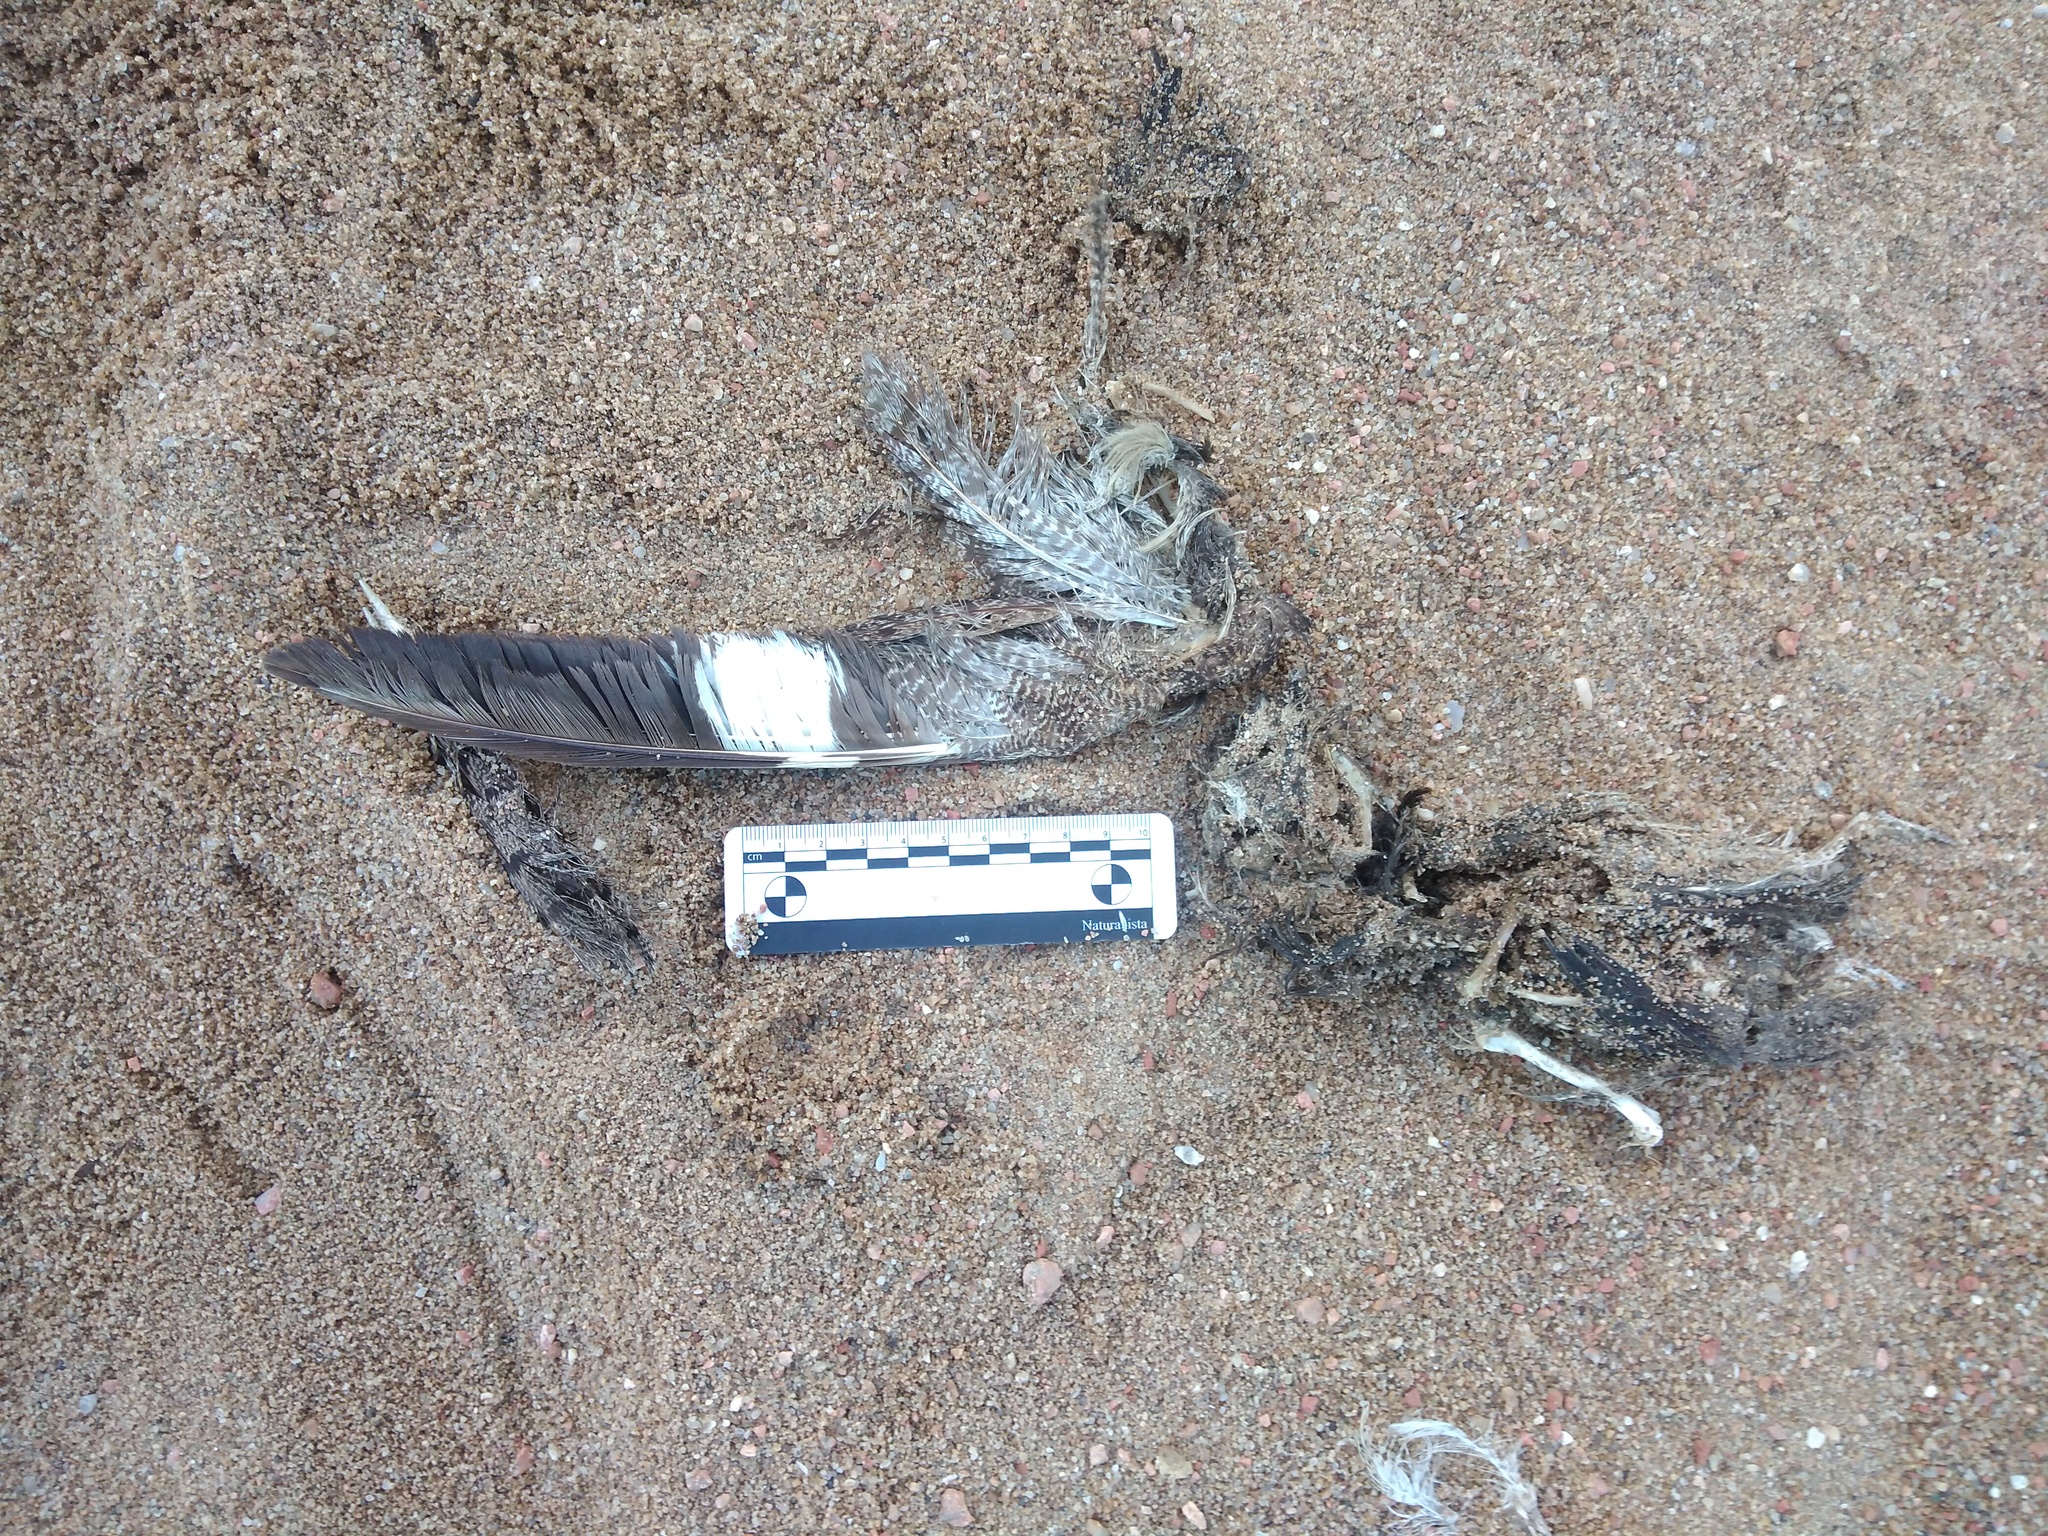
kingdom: Animalia
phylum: Chordata
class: Aves
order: Caprimulgiformes
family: Caprimulgidae
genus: Chordeiles
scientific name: Chordeiles nacunda
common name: Nacunda nighthawk
